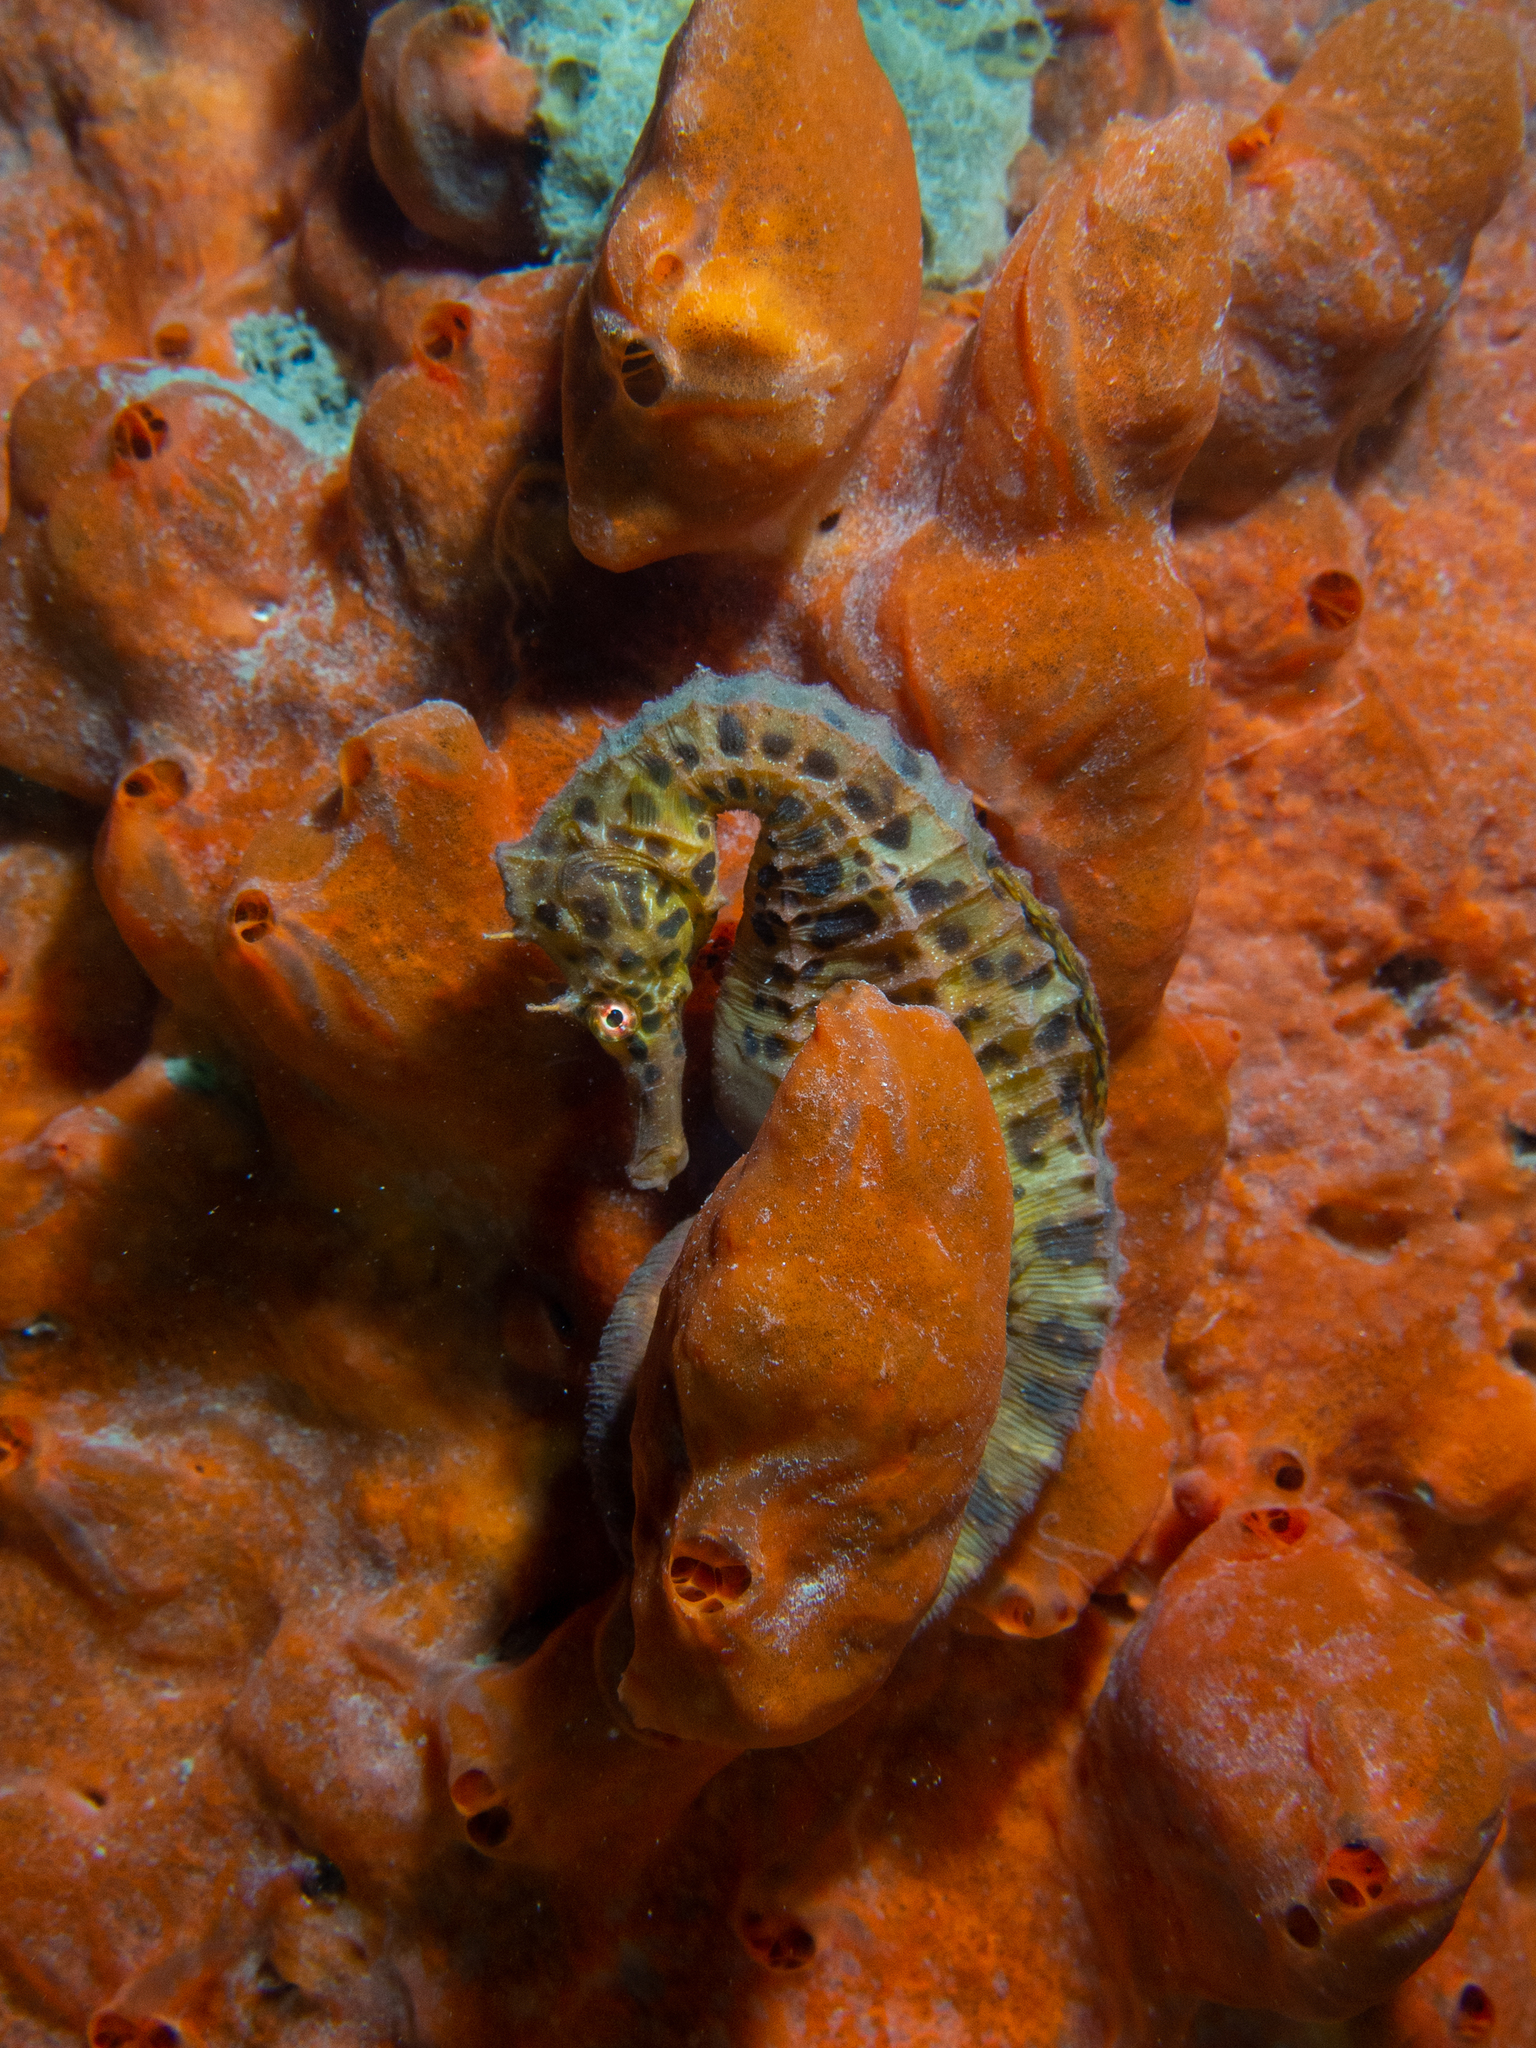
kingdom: Animalia
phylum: Chordata
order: Syngnathiformes
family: Syngnathidae
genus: Hippocampus
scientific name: Hippocampus abdominalis
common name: Big-belly seahorse
